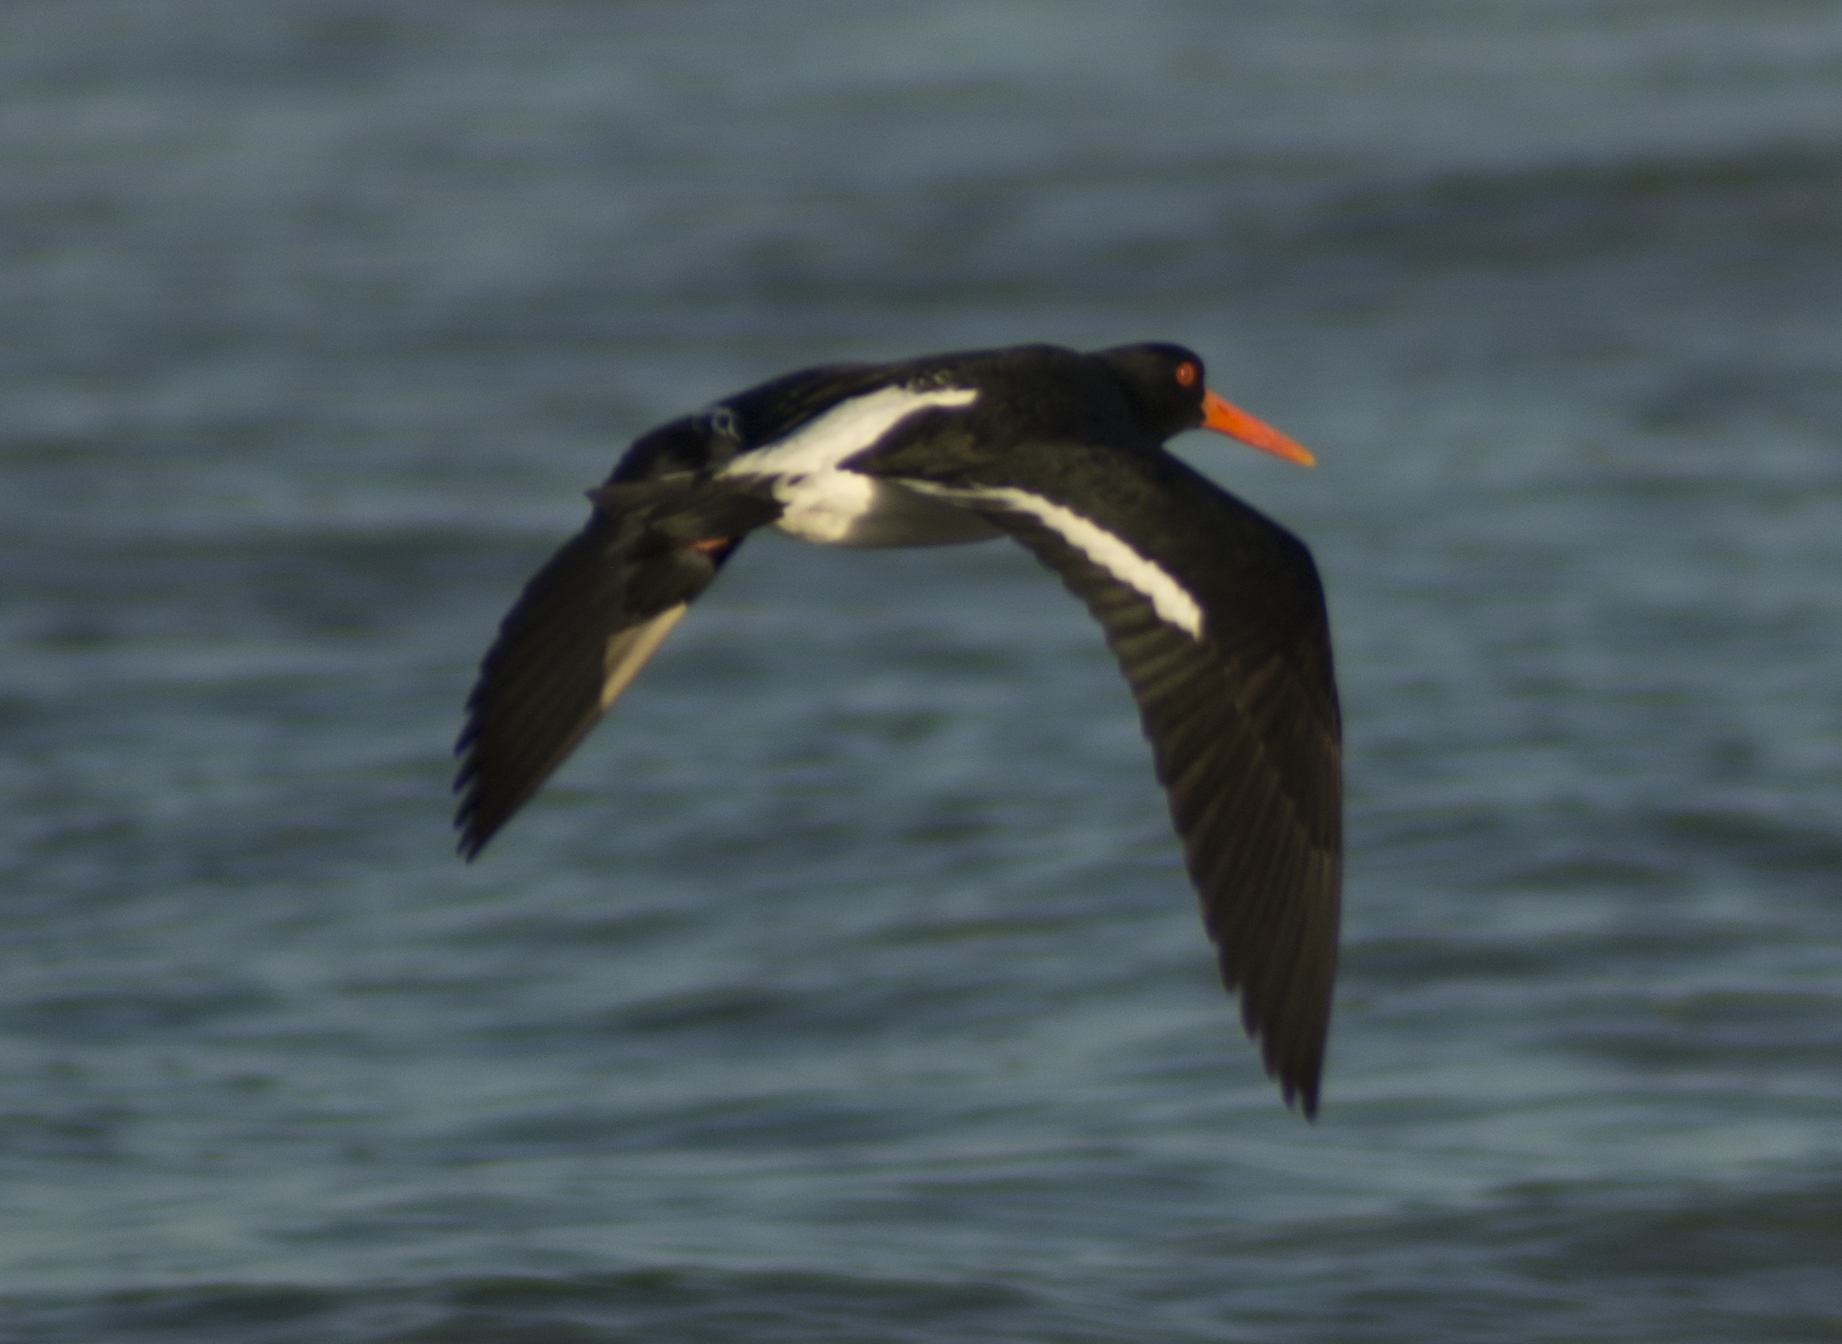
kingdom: Animalia
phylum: Chordata
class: Aves
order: Charadriiformes
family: Haematopodidae
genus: Haematopus
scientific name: Haematopus longirostris
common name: Pied oystercatcher
